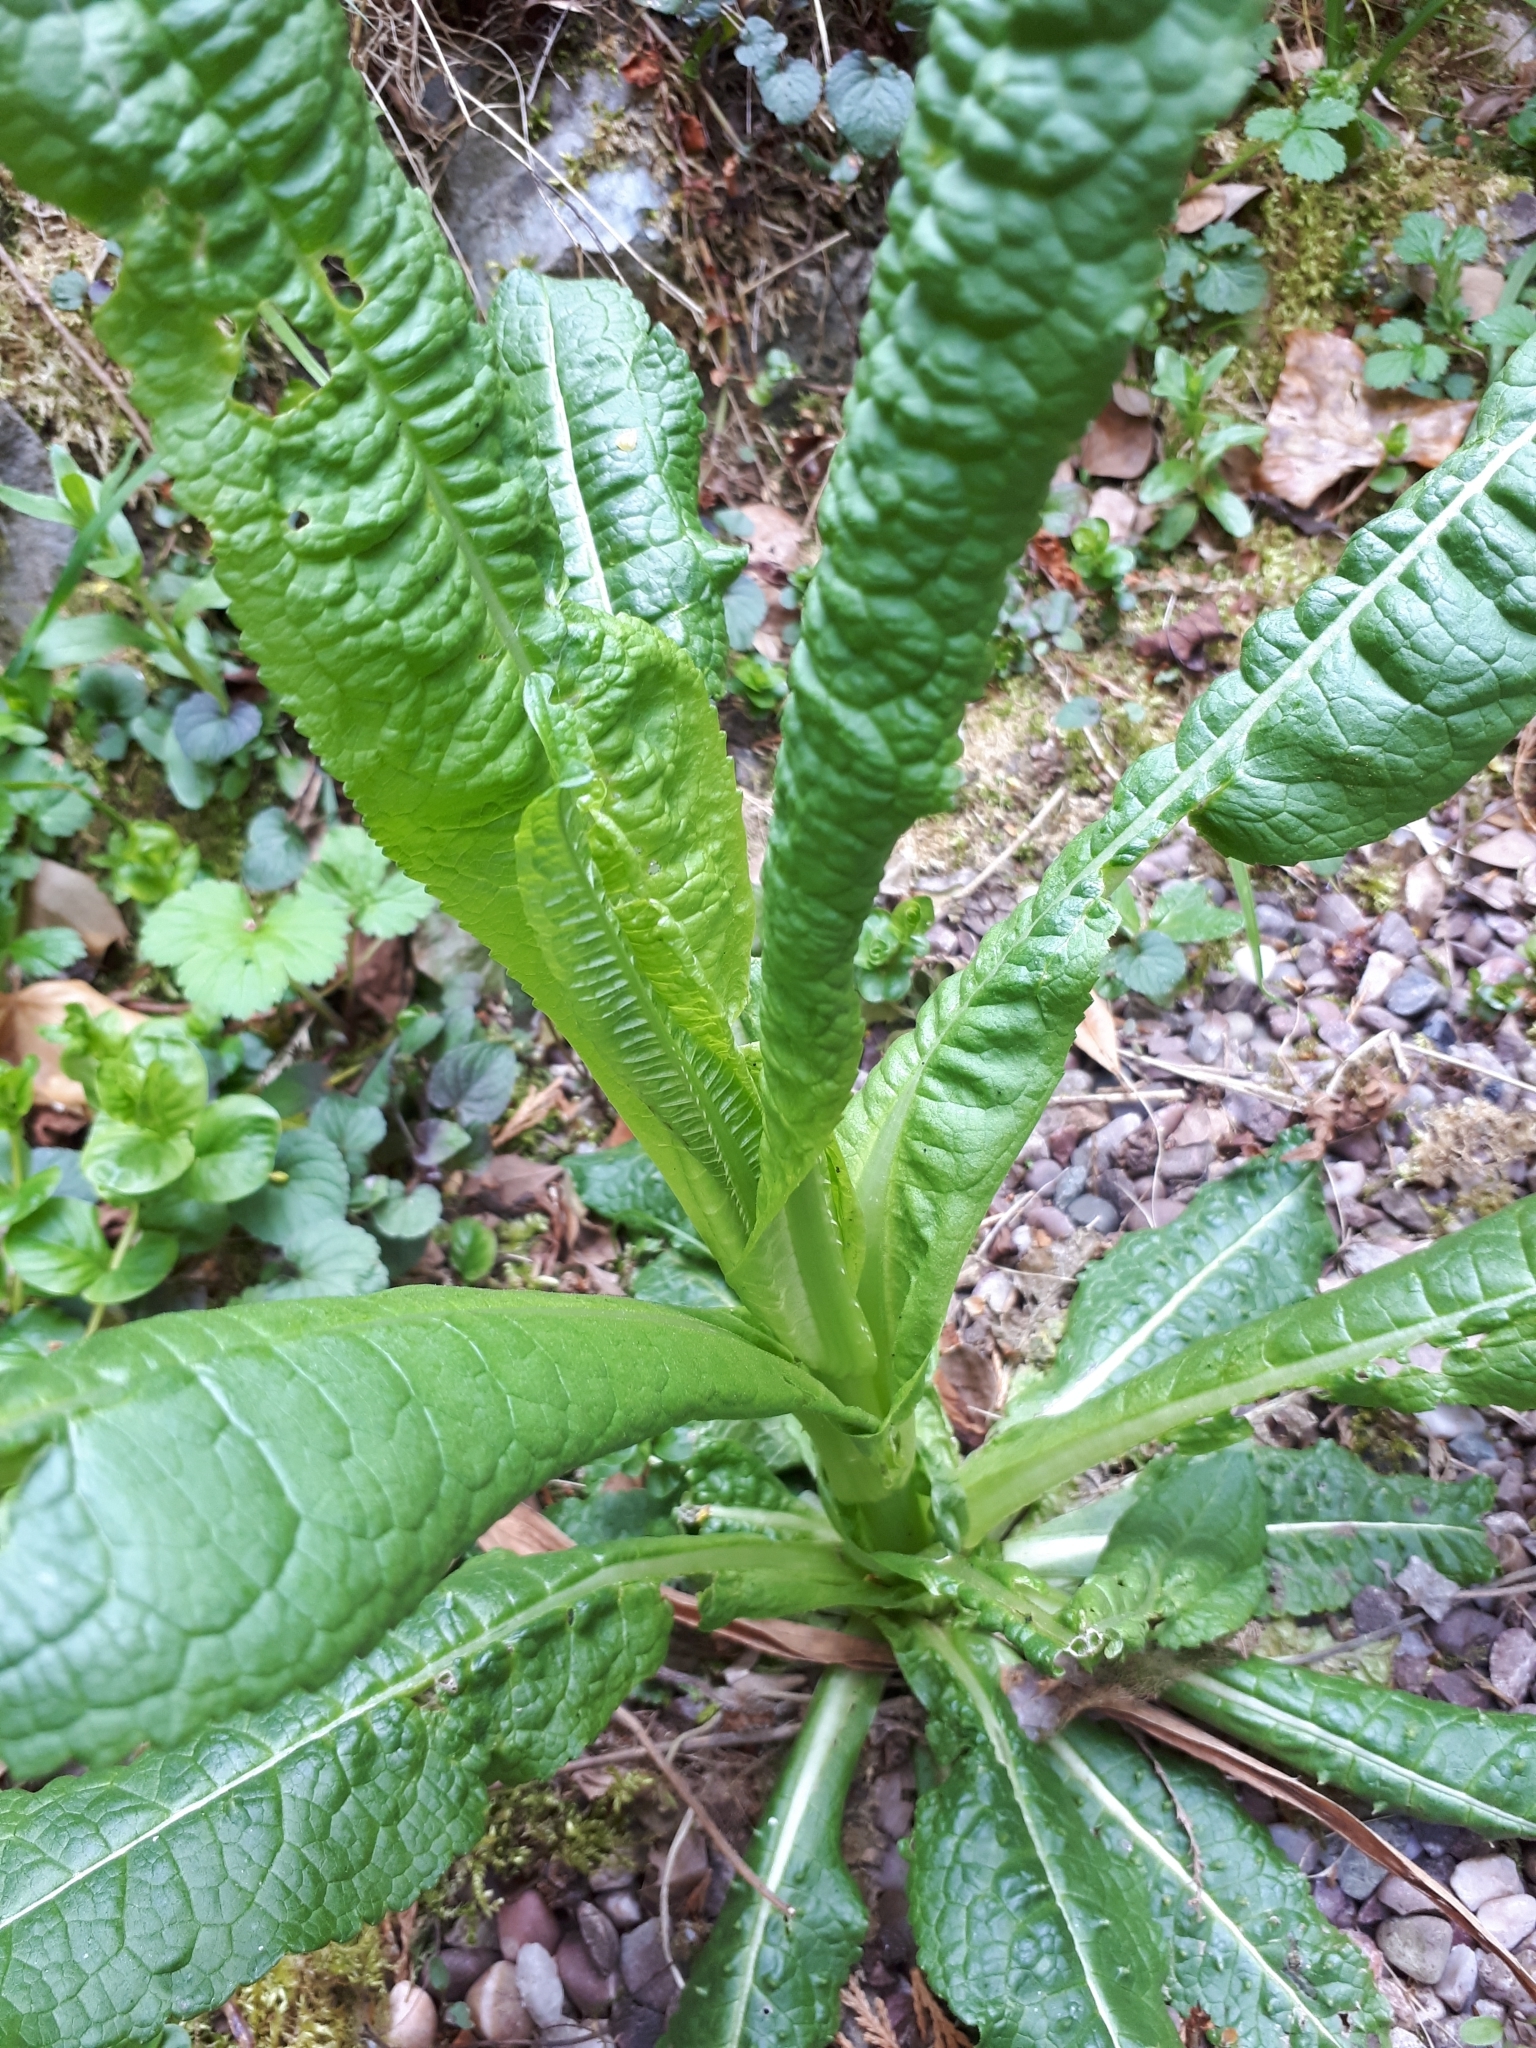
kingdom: Plantae
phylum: Tracheophyta
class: Magnoliopsida
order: Dipsacales
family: Caprifoliaceae
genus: Dipsacus
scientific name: Dipsacus fullonum
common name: Teasel
